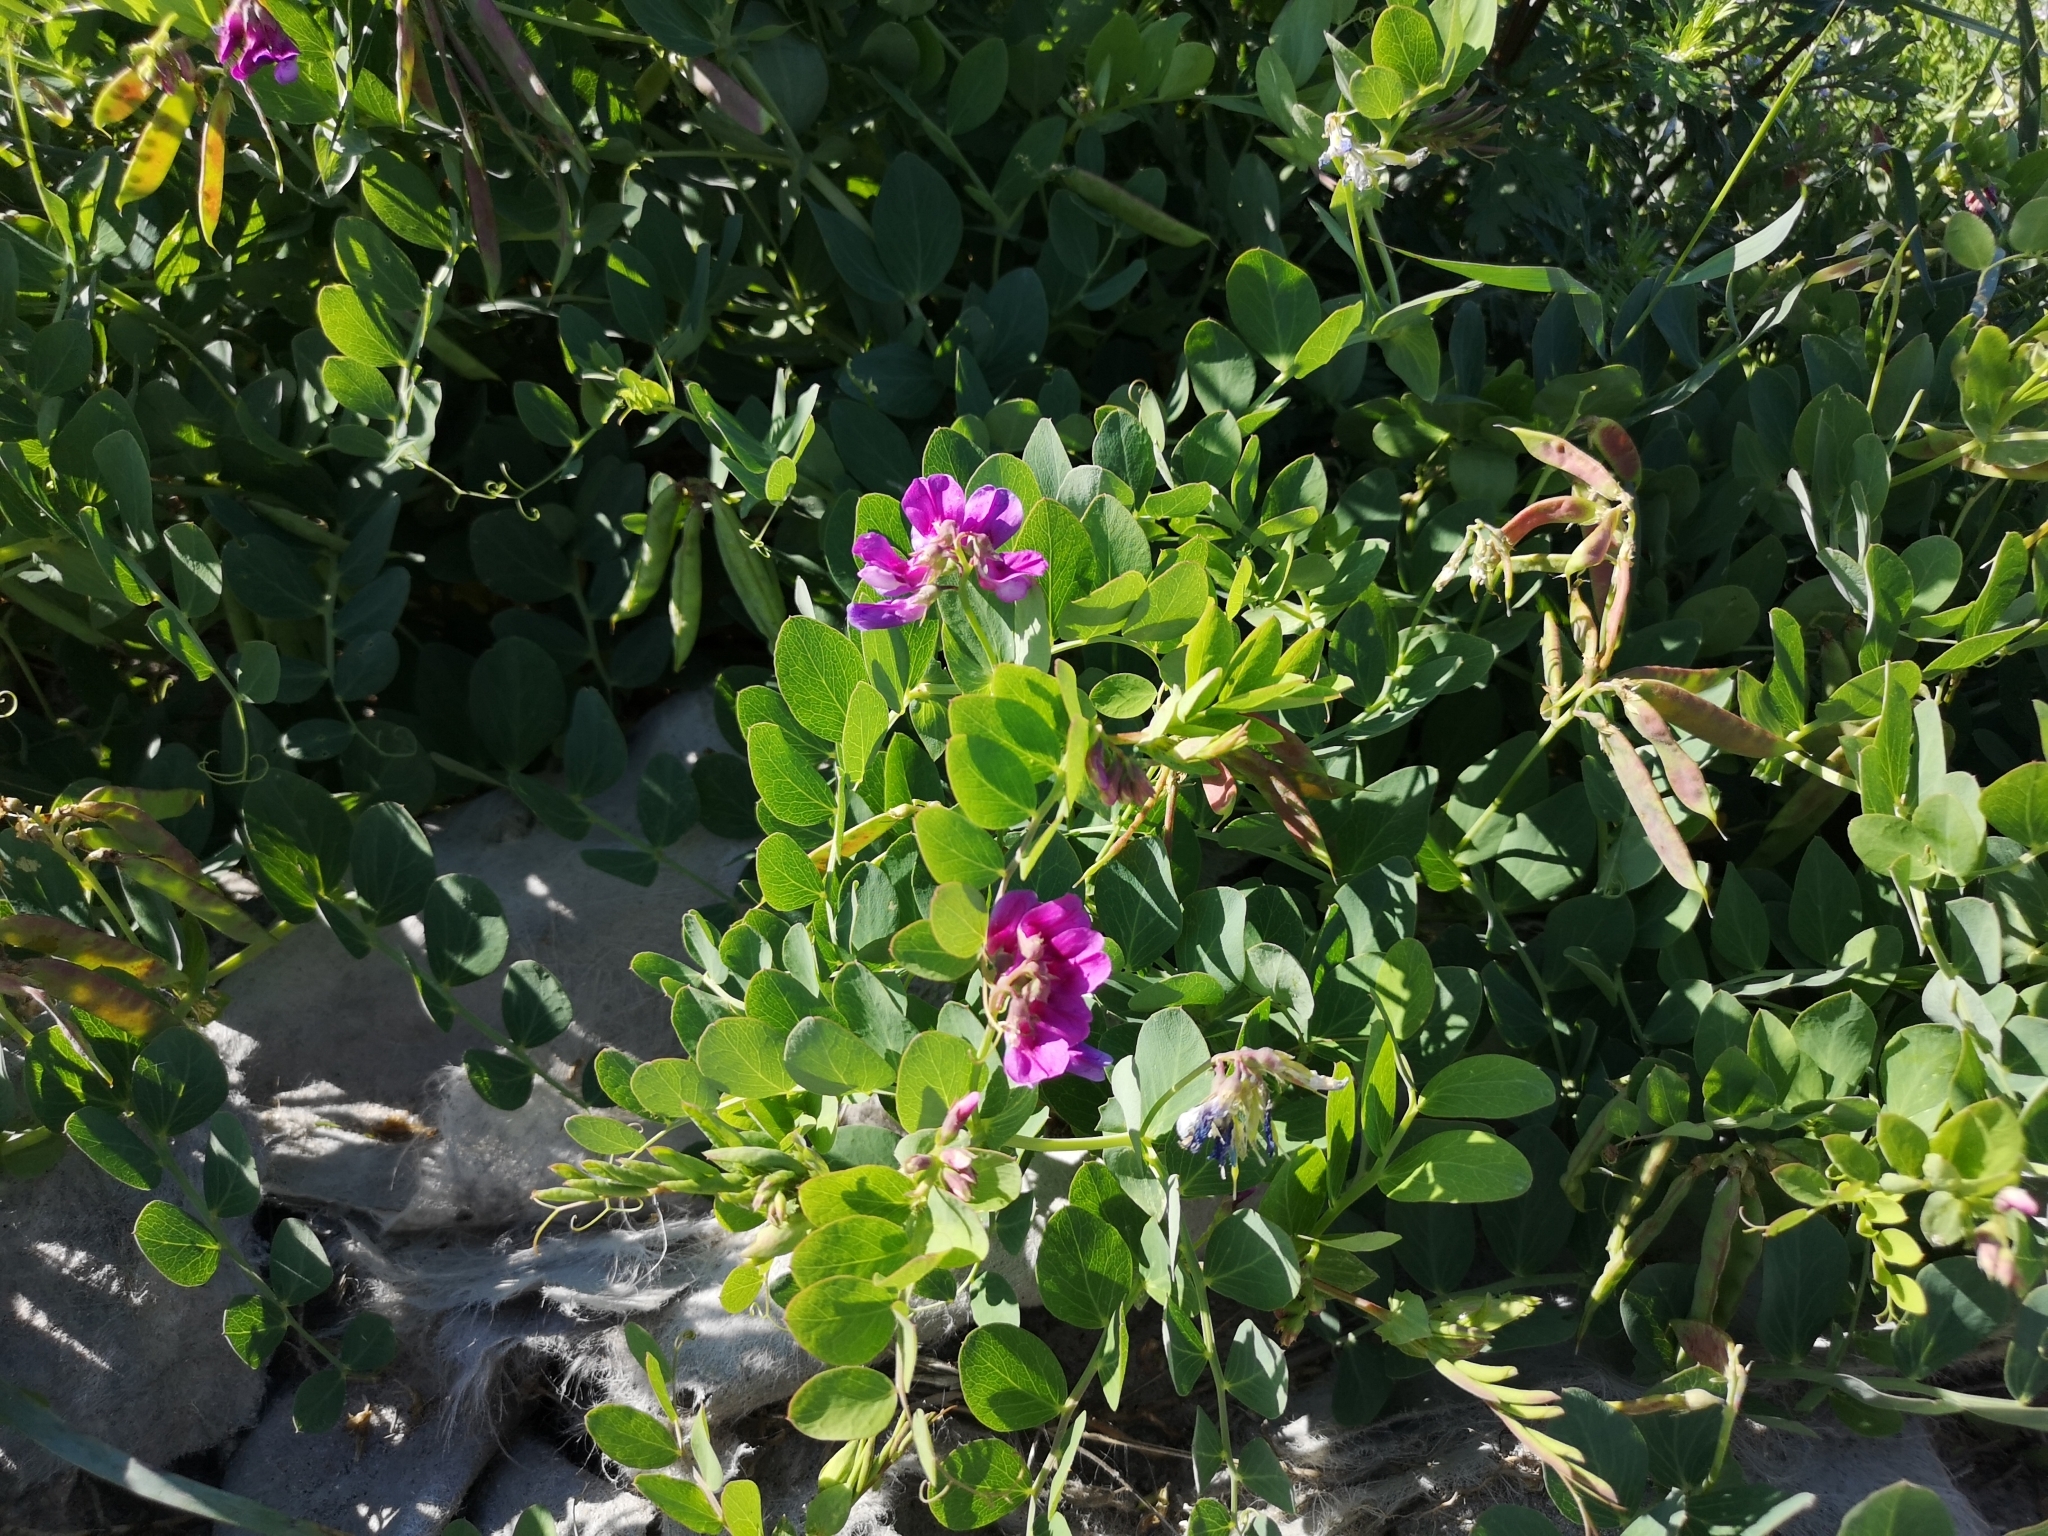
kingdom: Plantae
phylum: Tracheophyta
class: Magnoliopsida
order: Fabales
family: Fabaceae
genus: Lathyrus
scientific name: Lathyrus japonicus
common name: Sea pea
